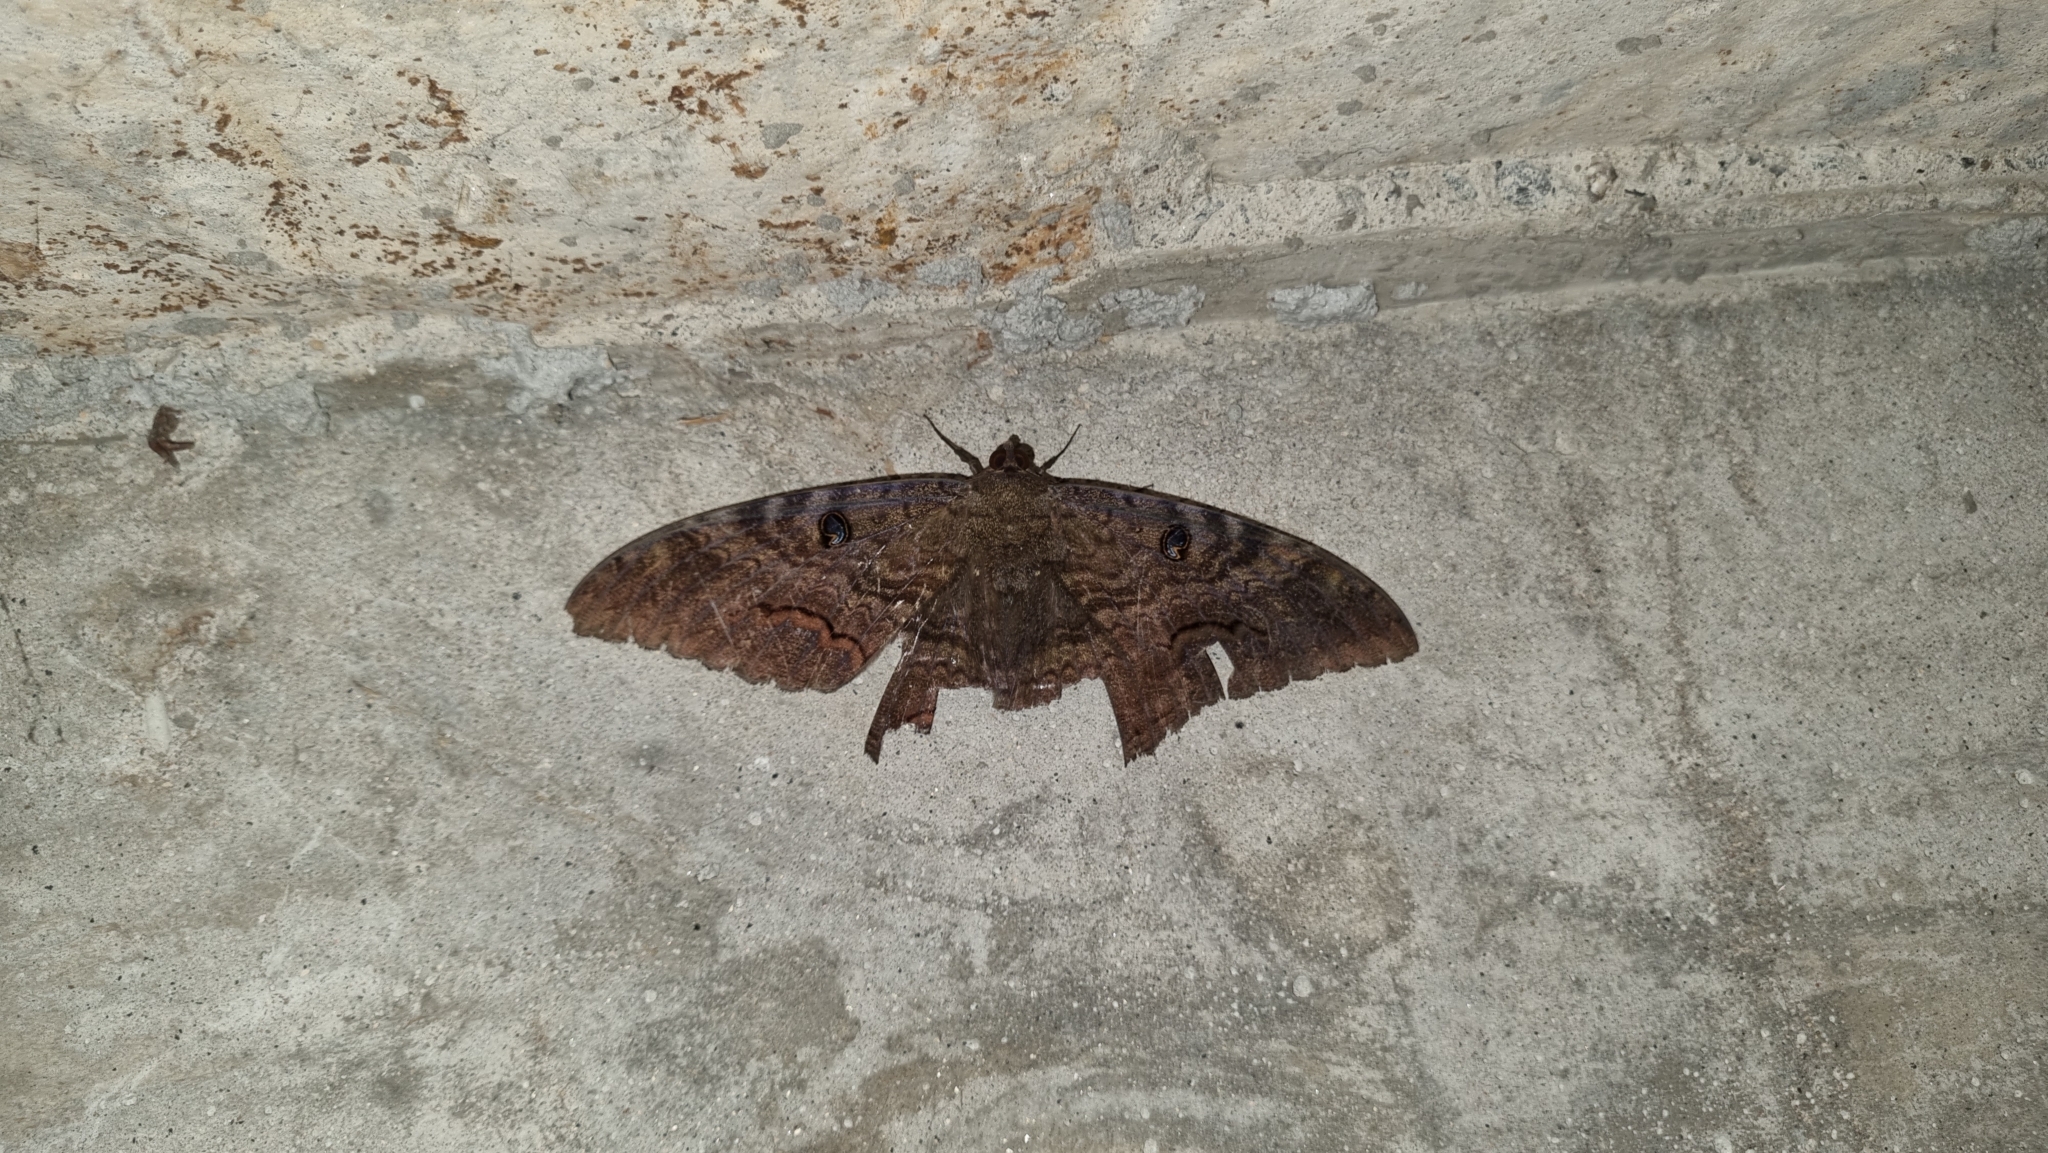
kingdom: Animalia
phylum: Arthropoda
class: Insecta
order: Lepidoptera
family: Erebidae
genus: Ascalapha
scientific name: Ascalapha odorata
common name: Black witch
